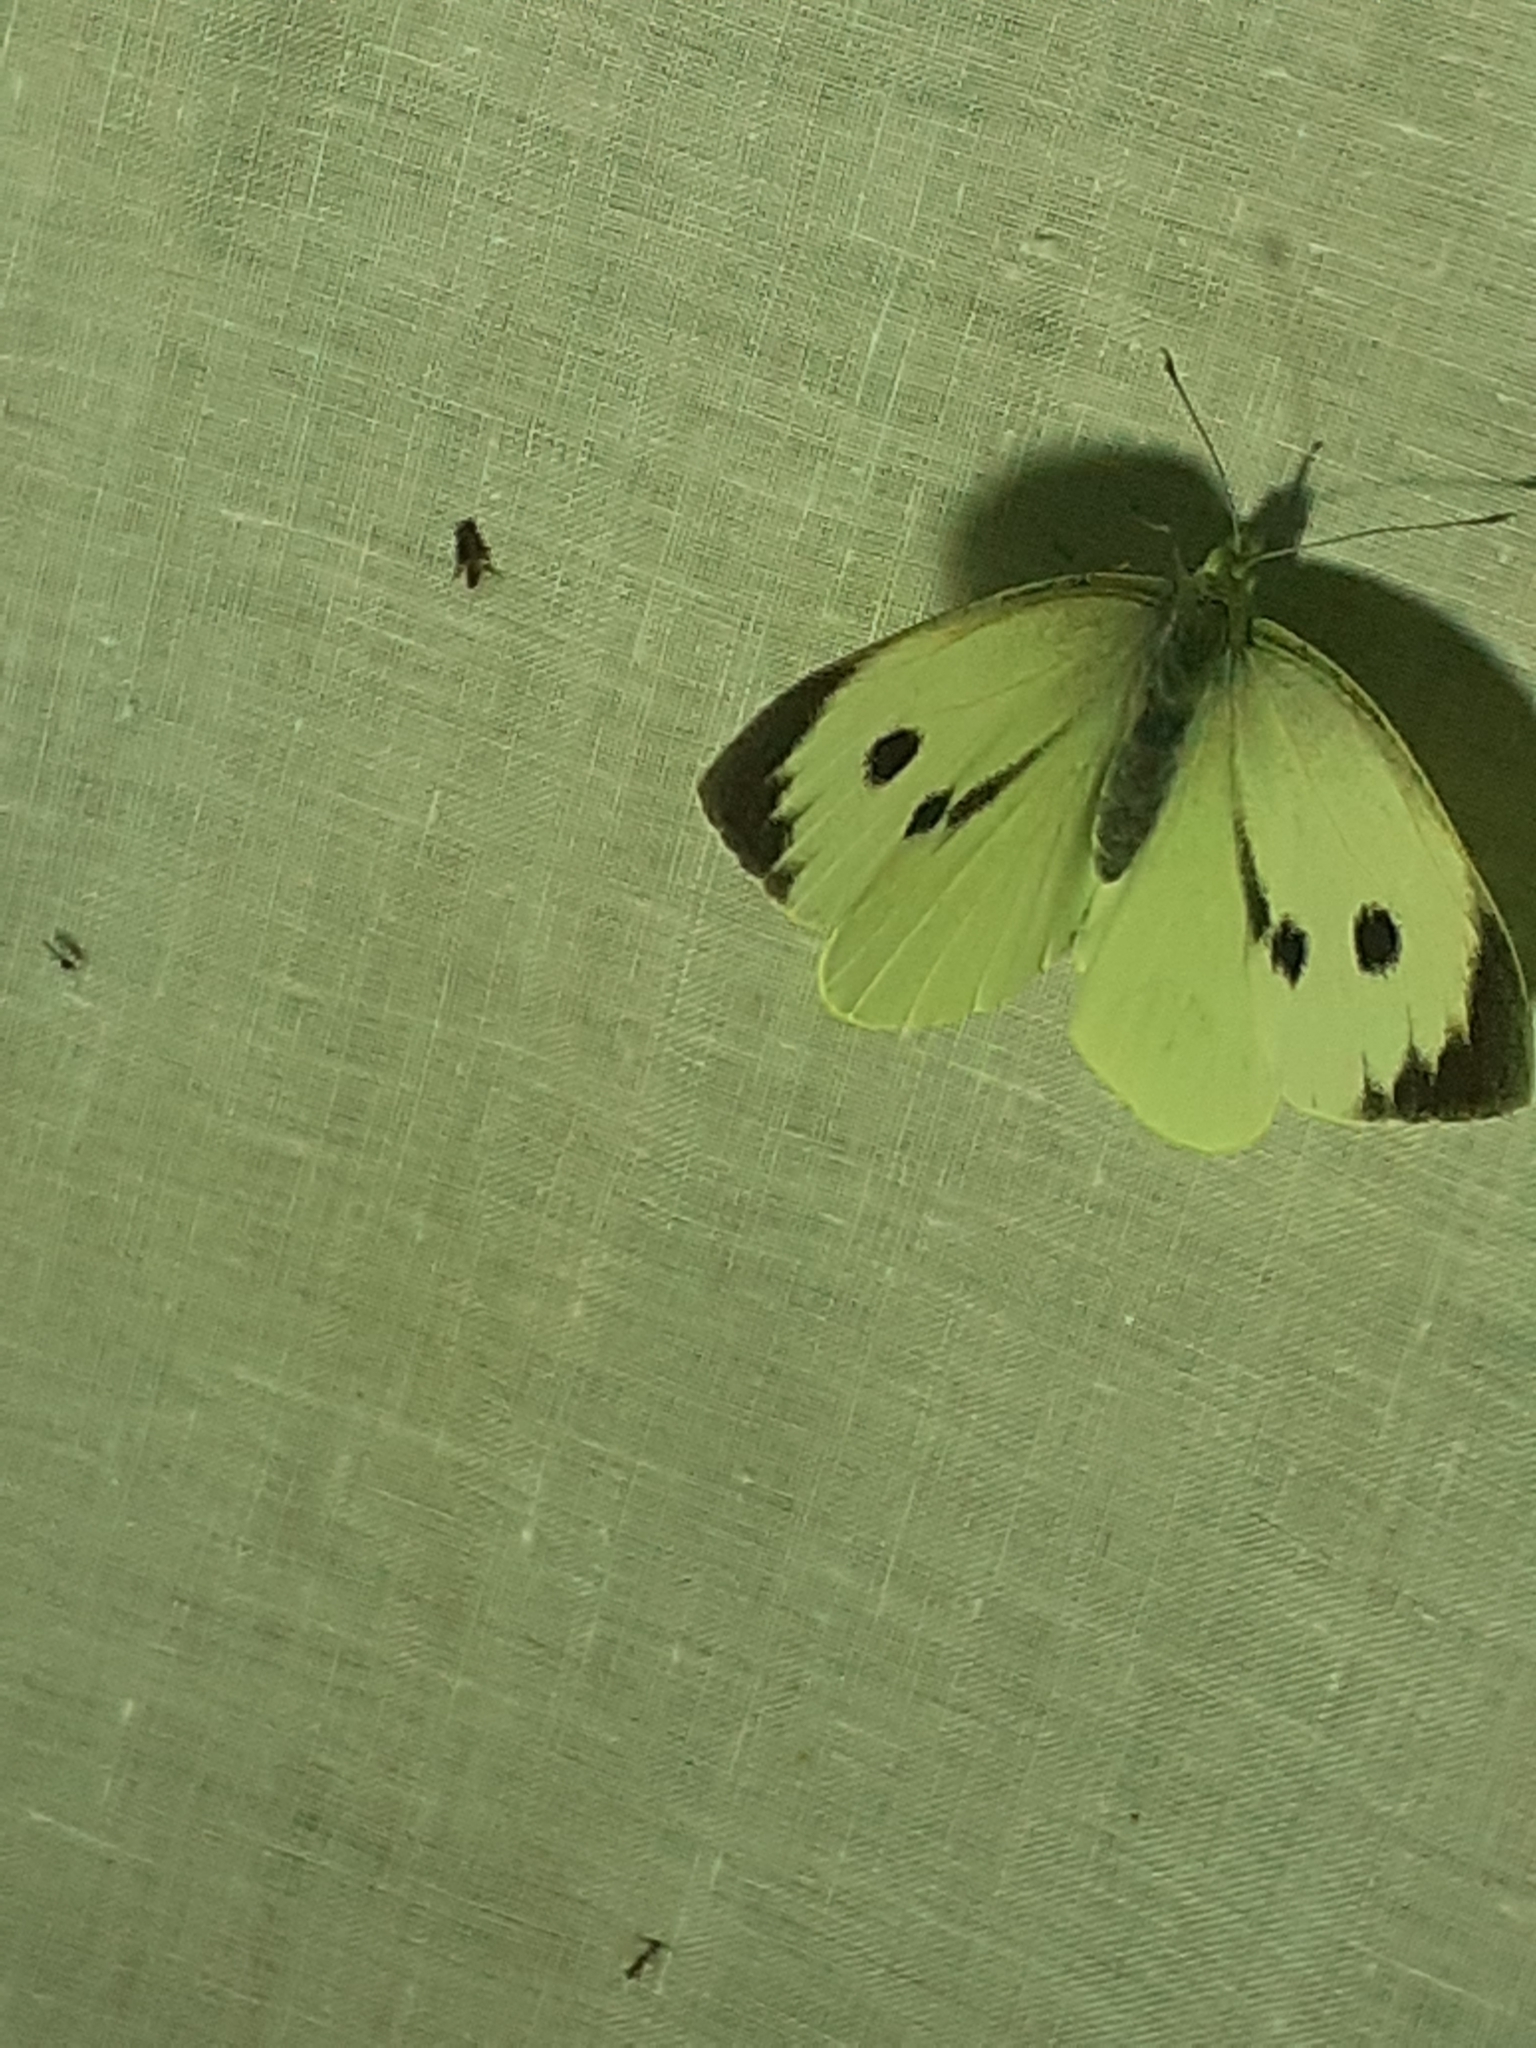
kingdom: Animalia
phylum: Arthropoda
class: Insecta
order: Lepidoptera
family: Pieridae
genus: Pieris
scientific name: Pieris brassicae
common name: Large white
